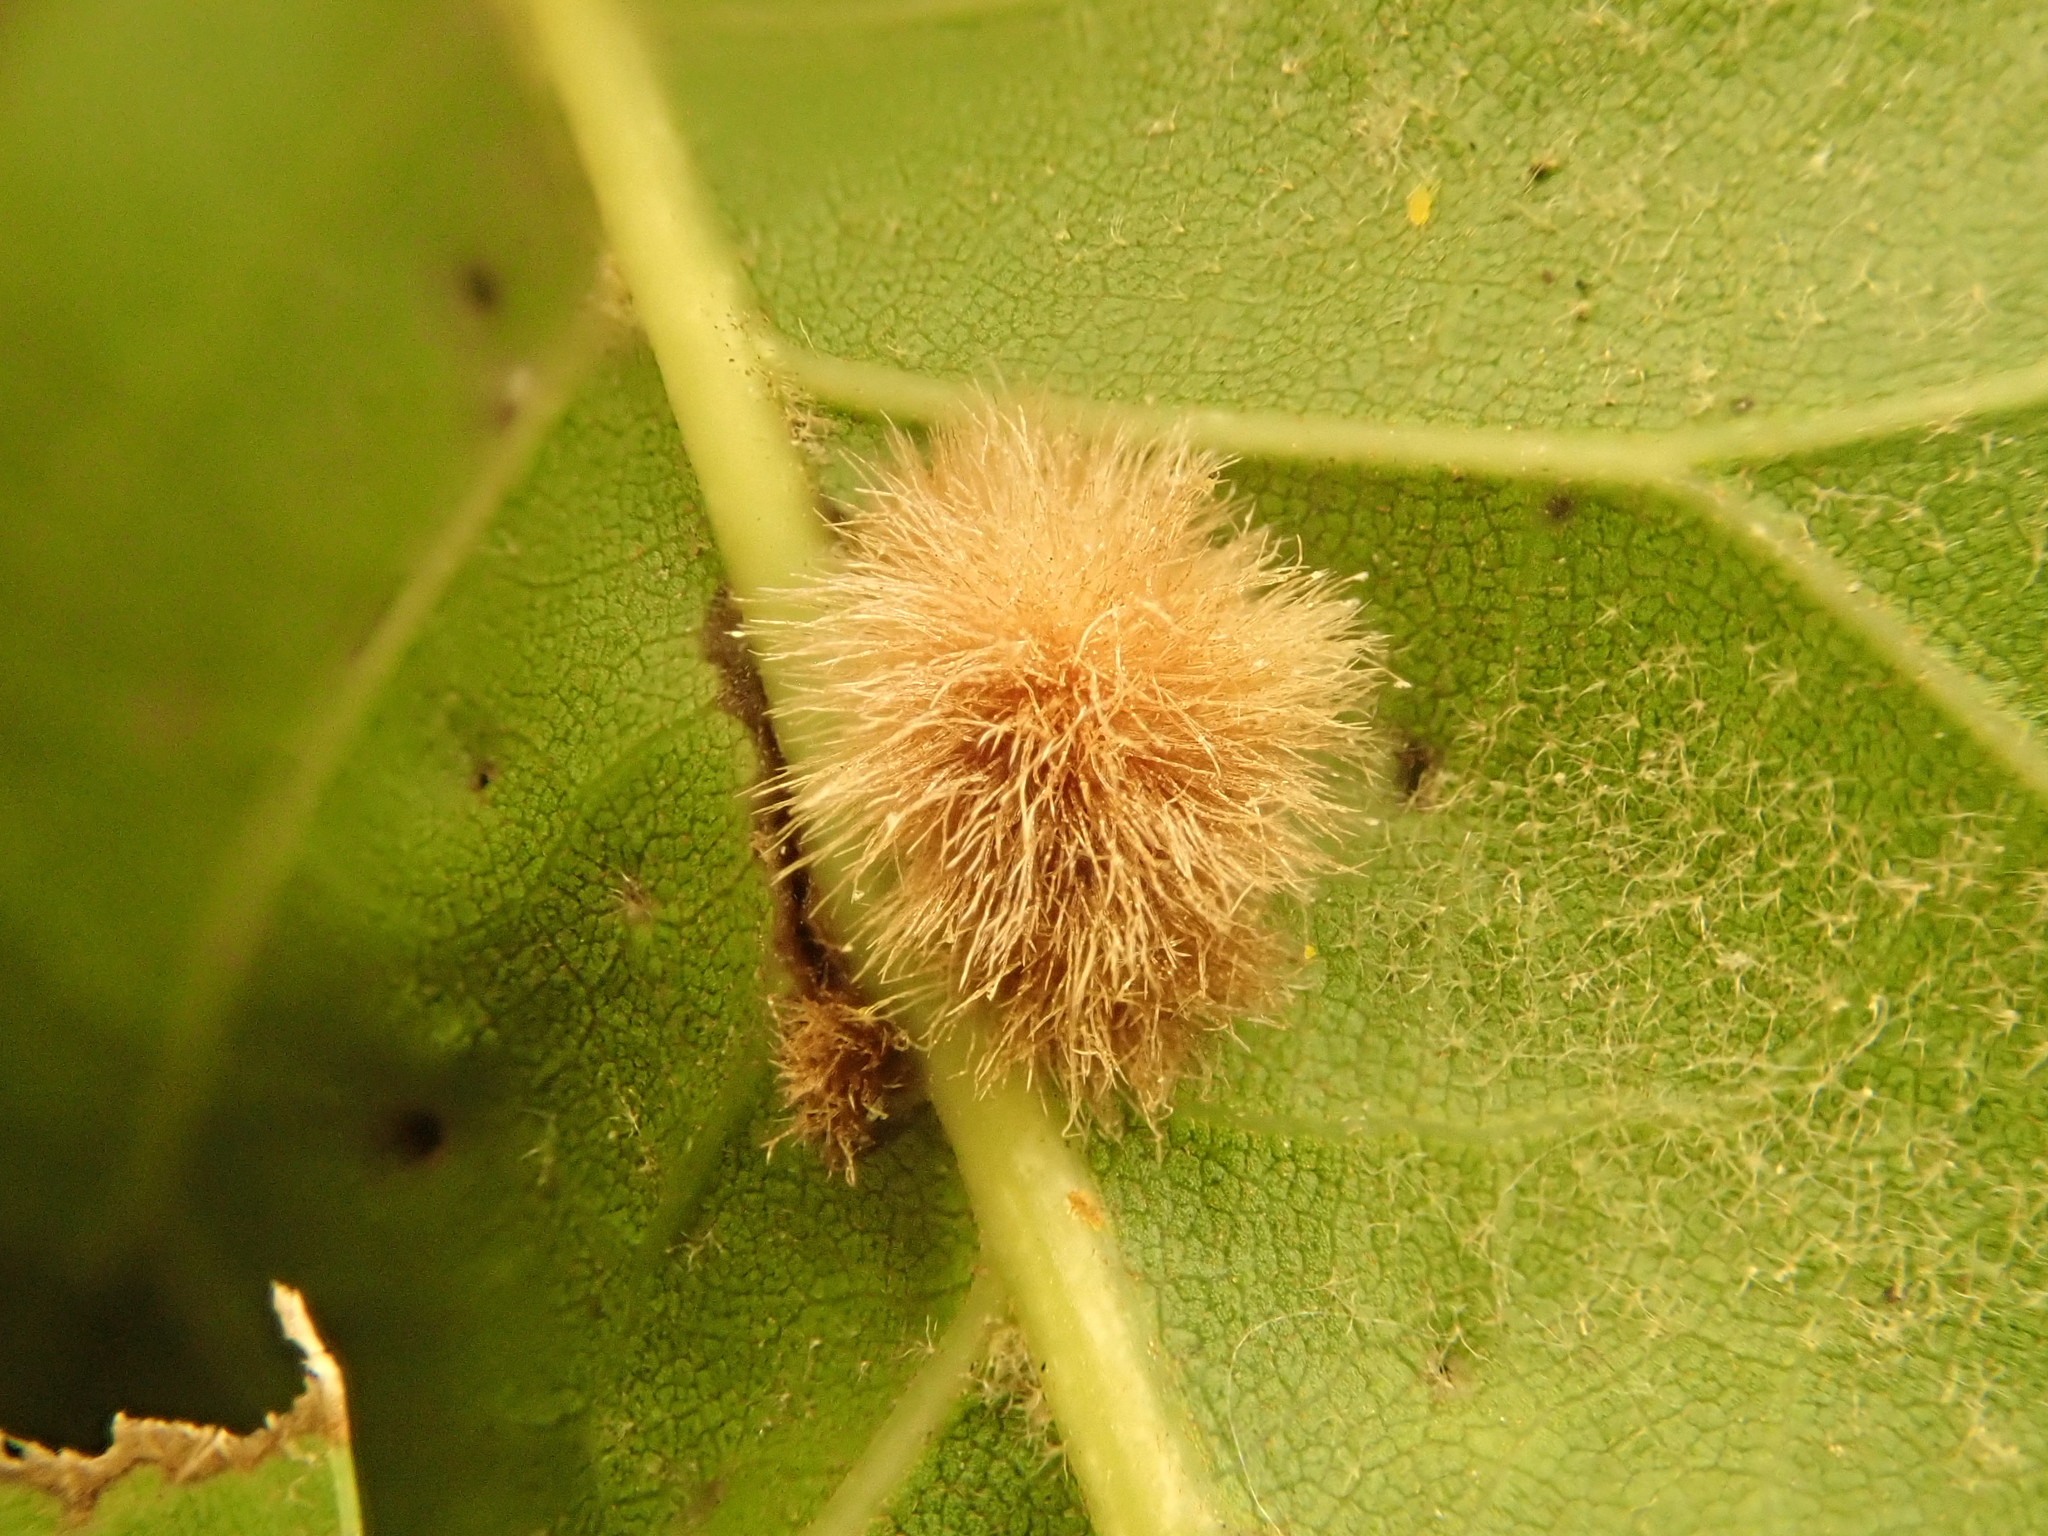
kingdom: Animalia
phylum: Arthropoda
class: Insecta
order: Hymenoptera
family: Cynipidae
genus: Callirhytis
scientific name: Callirhytis
